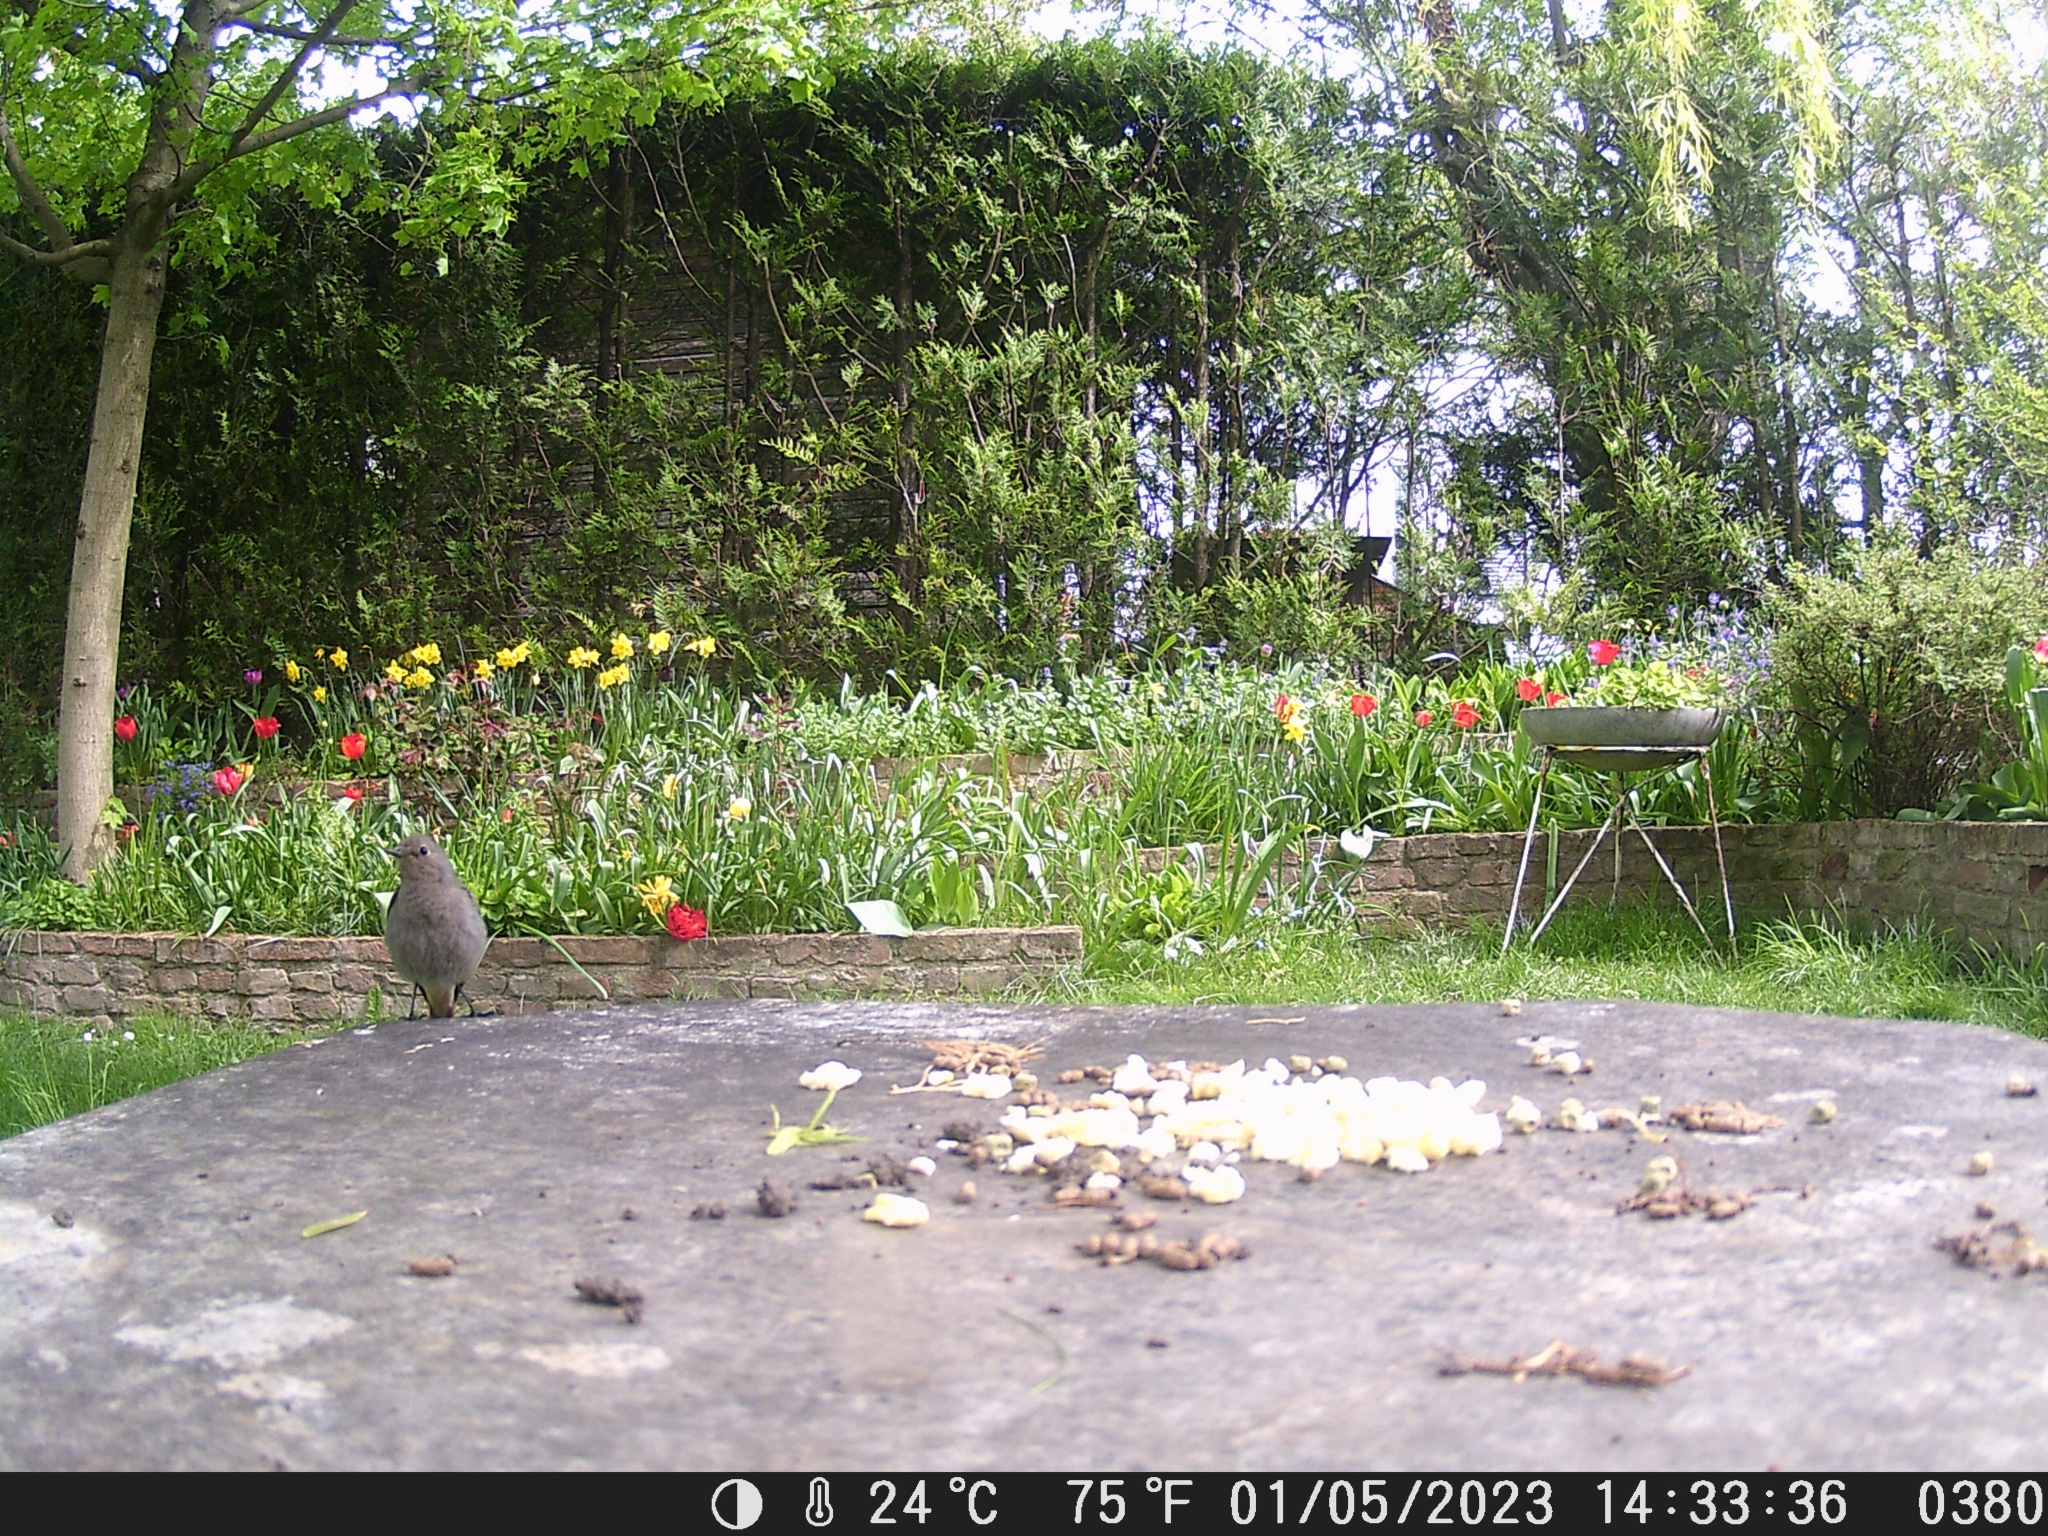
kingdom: Animalia
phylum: Chordata
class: Aves
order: Passeriformes
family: Muscicapidae
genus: Phoenicurus
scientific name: Phoenicurus ochruros
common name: Black redstart
